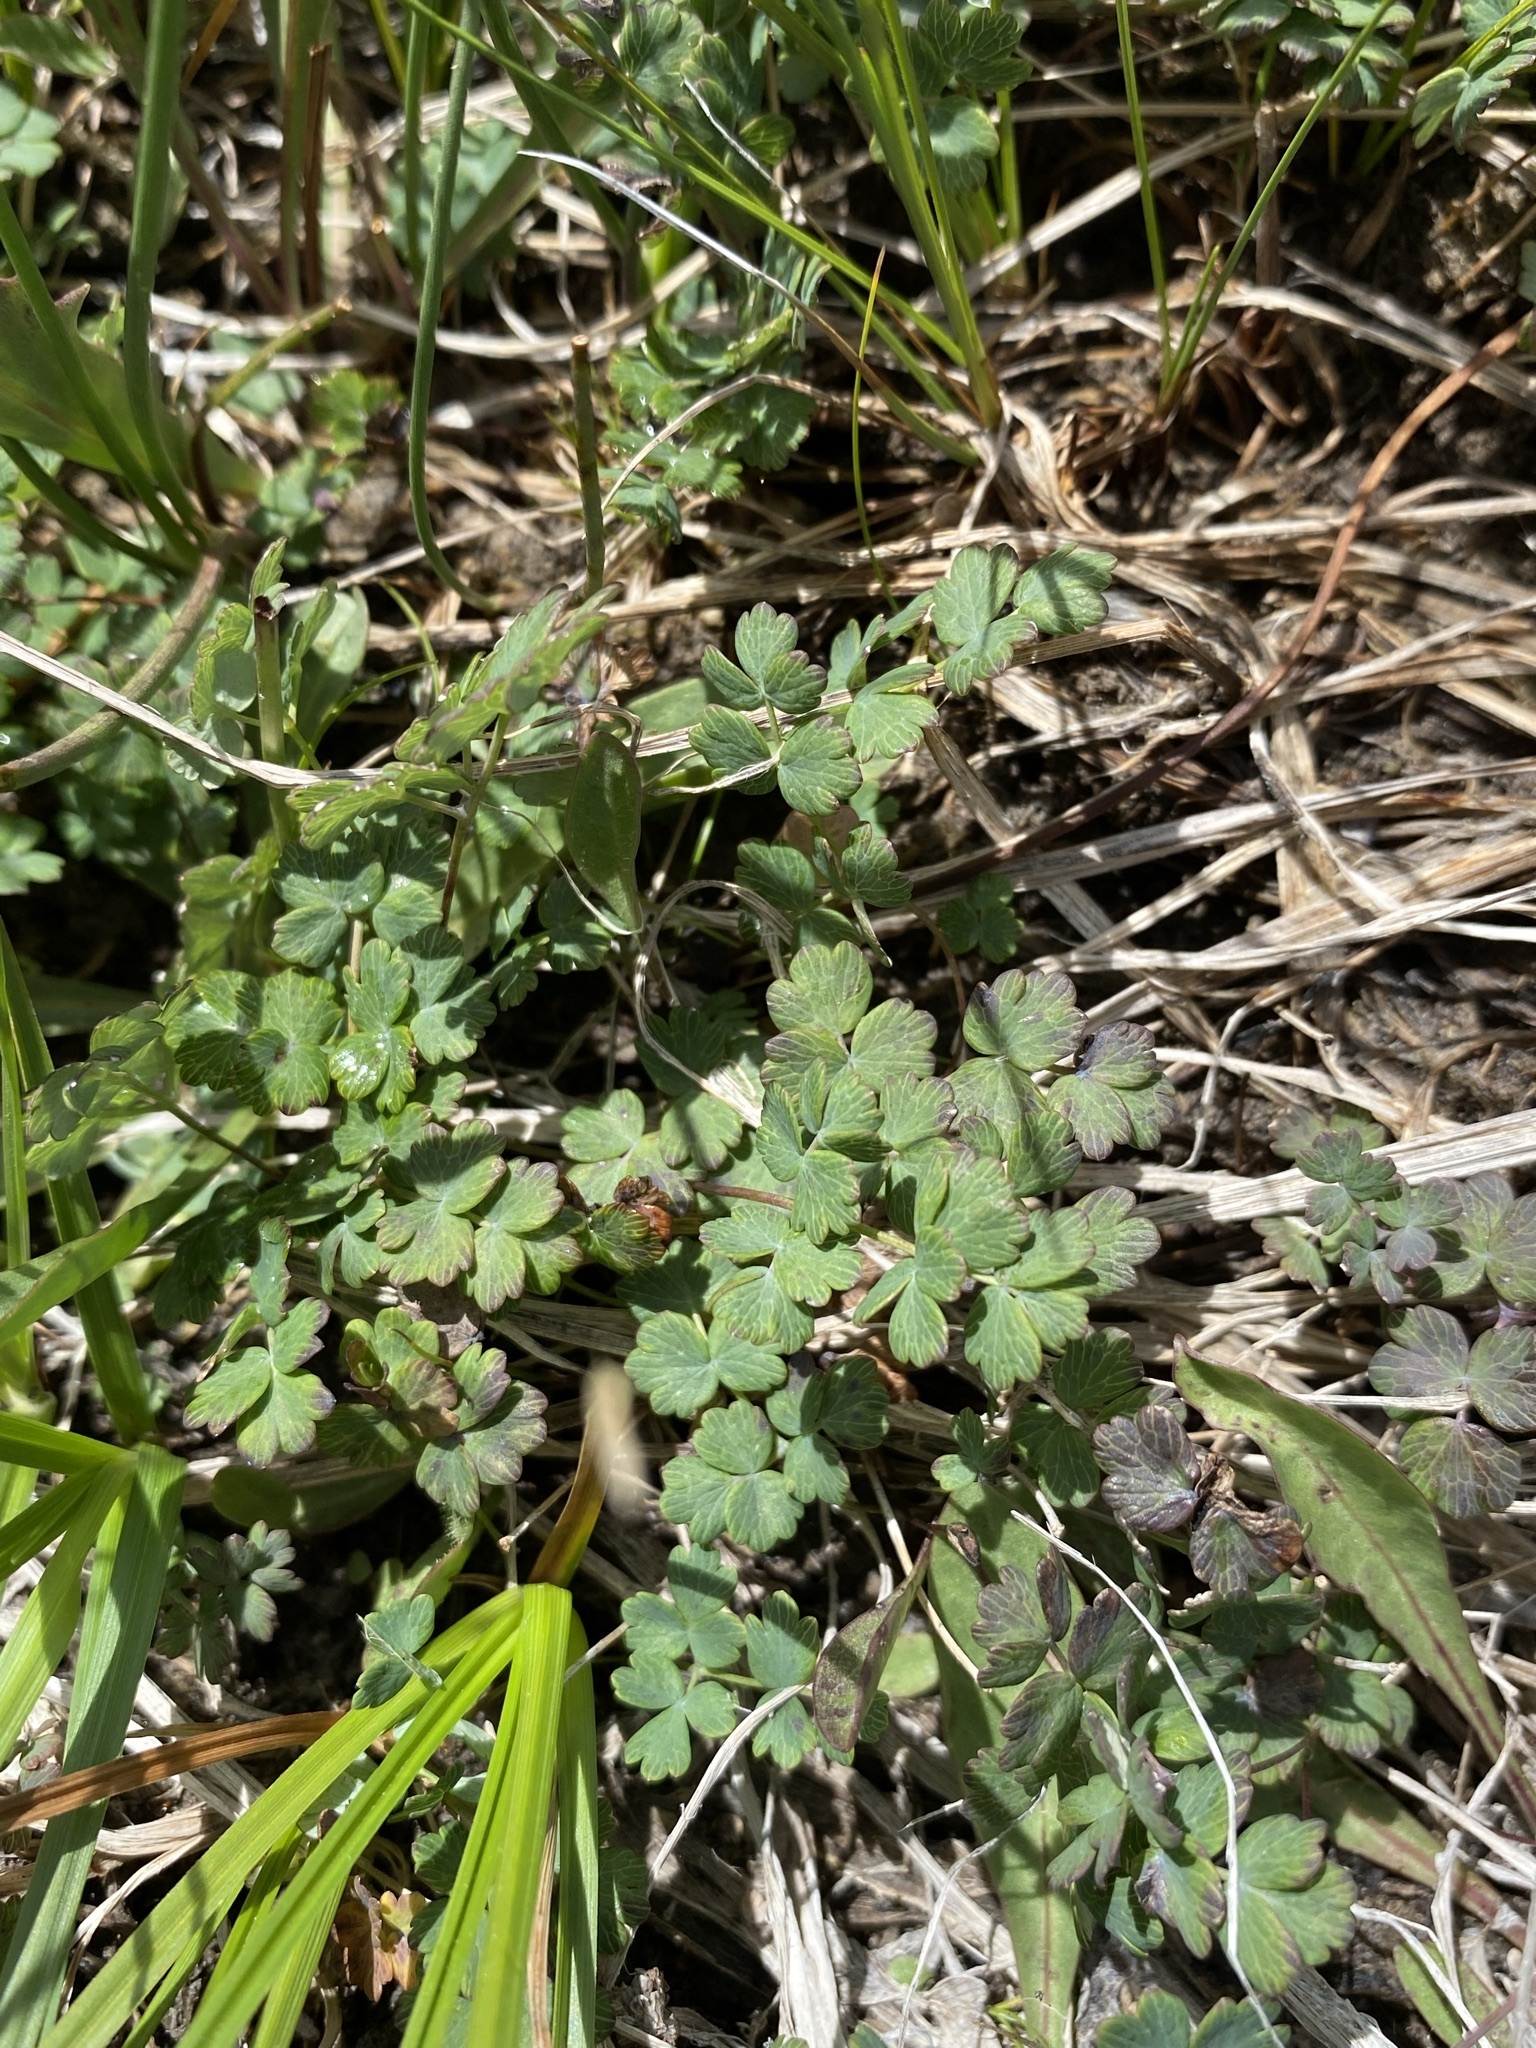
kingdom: Plantae
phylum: Tracheophyta
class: Magnoliopsida
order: Ranunculales
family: Ranunculaceae
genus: Thalictrum
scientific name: Thalictrum alpinum
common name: Alpine meadow-rue
